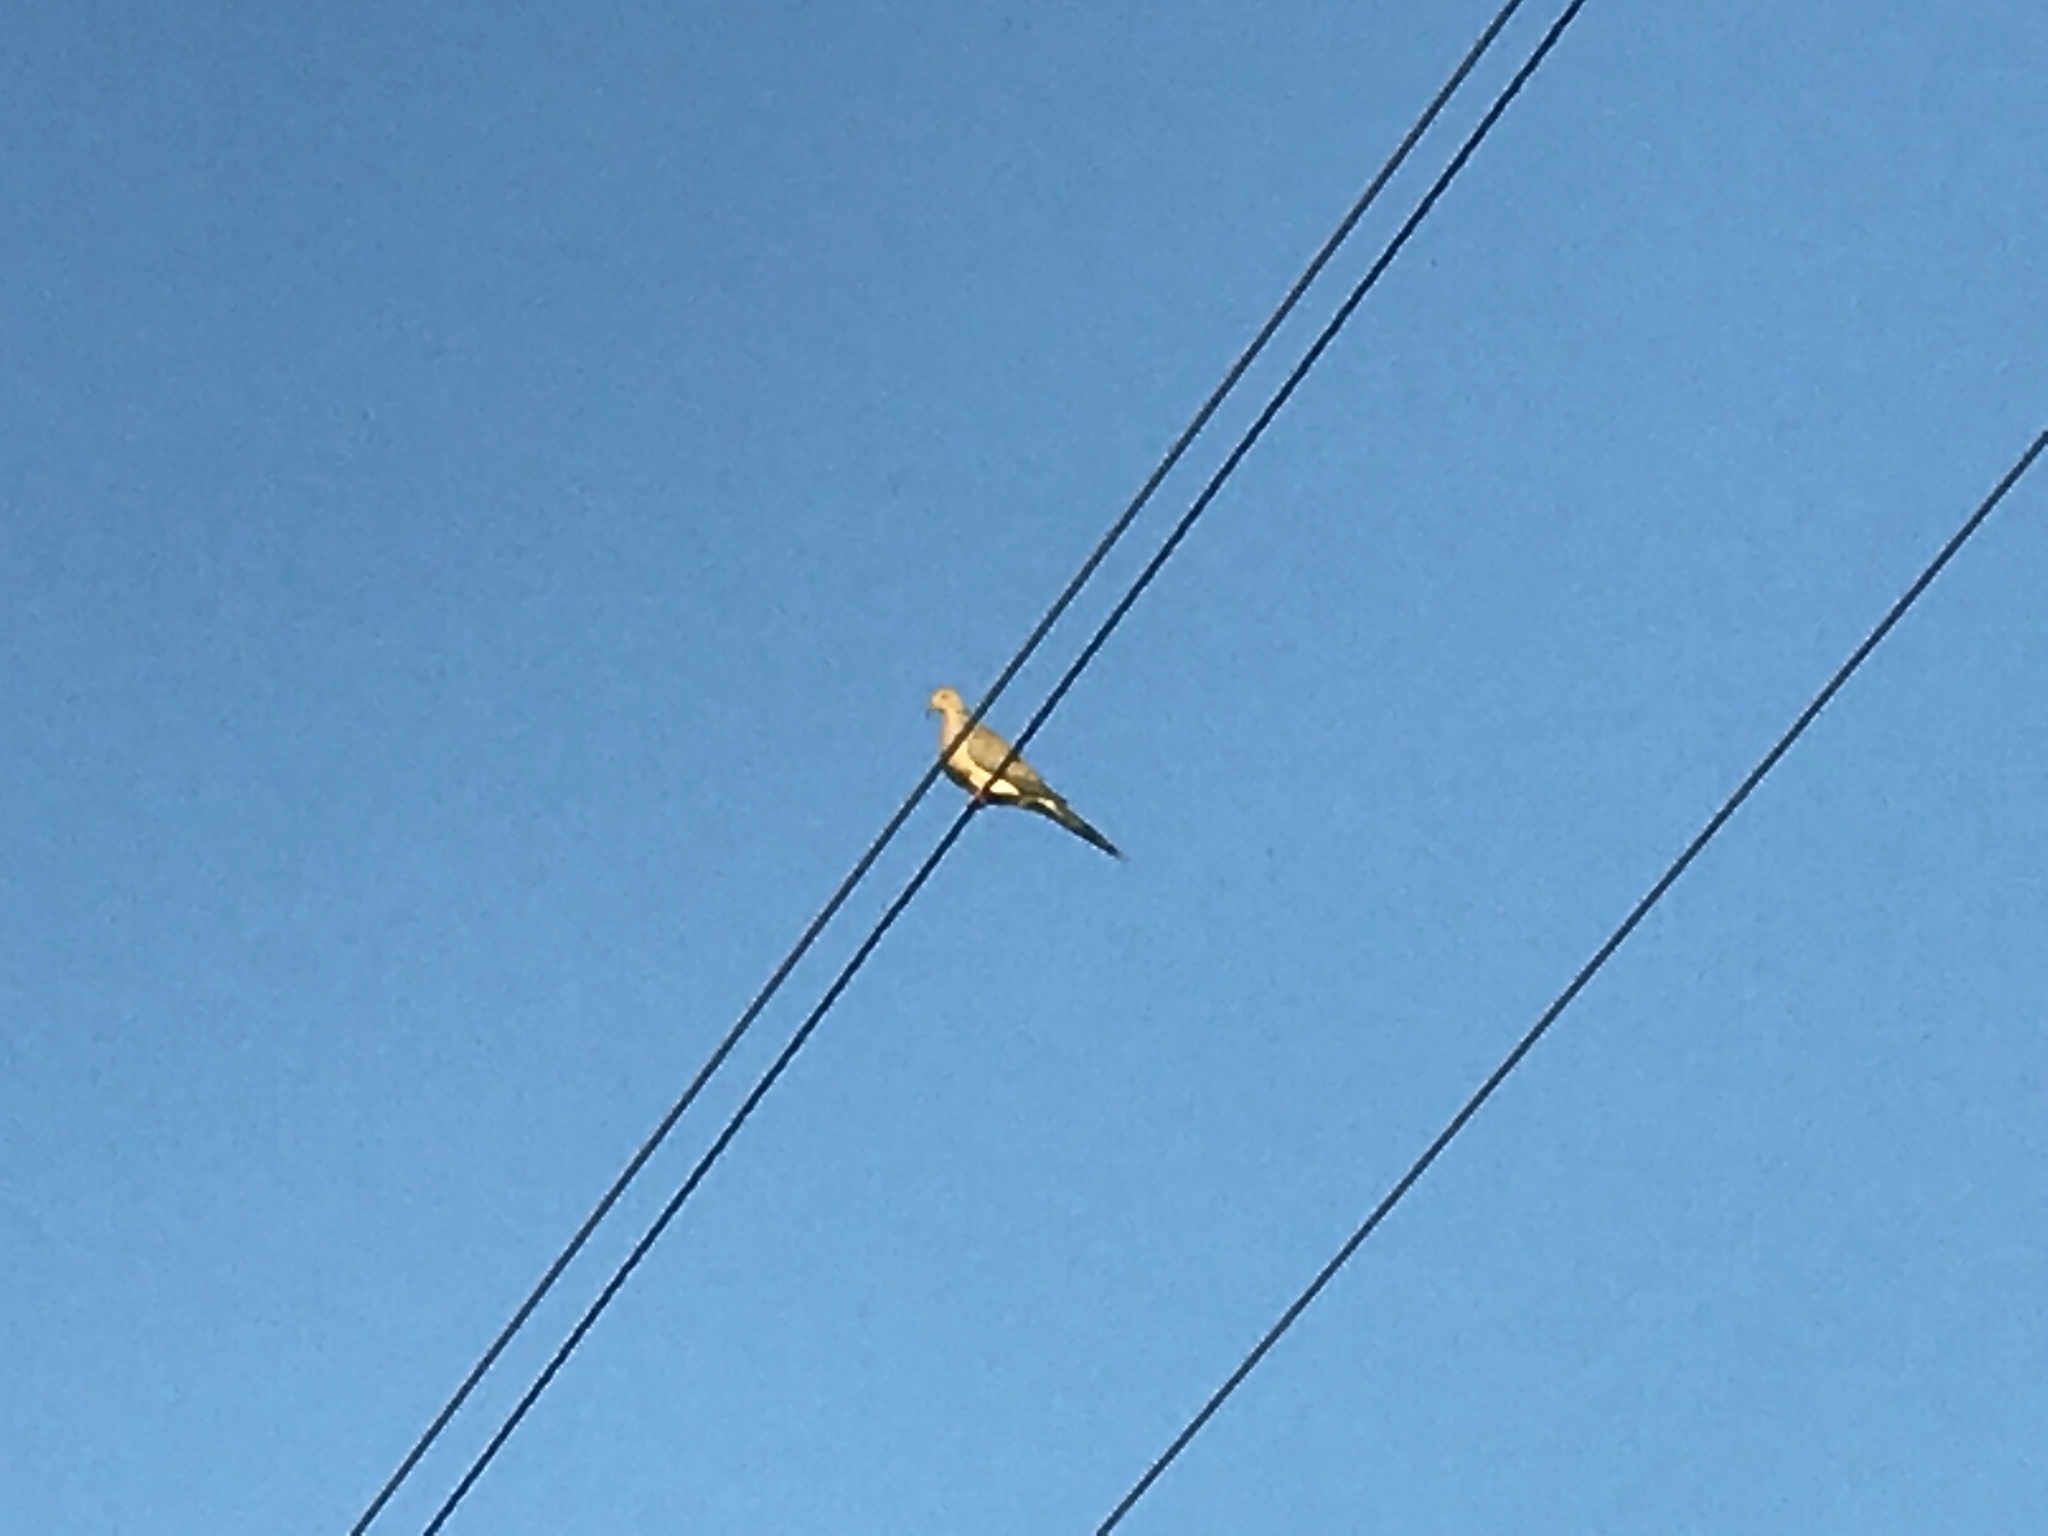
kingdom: Animalia
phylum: Chordata
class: Aves
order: Columbiformes
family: Columbidae
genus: Zenaida
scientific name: Zenaida macroura
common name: Mourning dove
